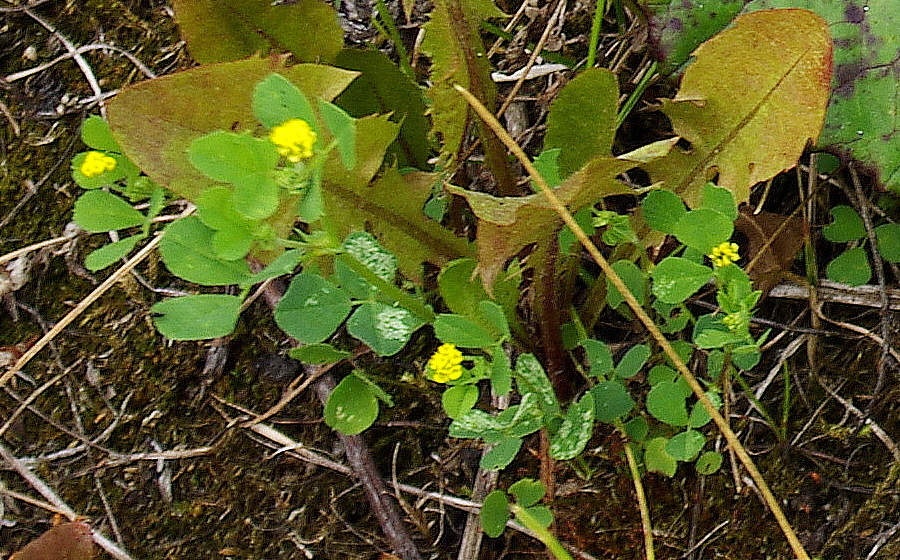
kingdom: Plantae
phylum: Tracheophyta
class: Magnoliopsida
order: Fabales
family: Fabaceae
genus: Medicago
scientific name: Medicago lupulina
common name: Black medick
